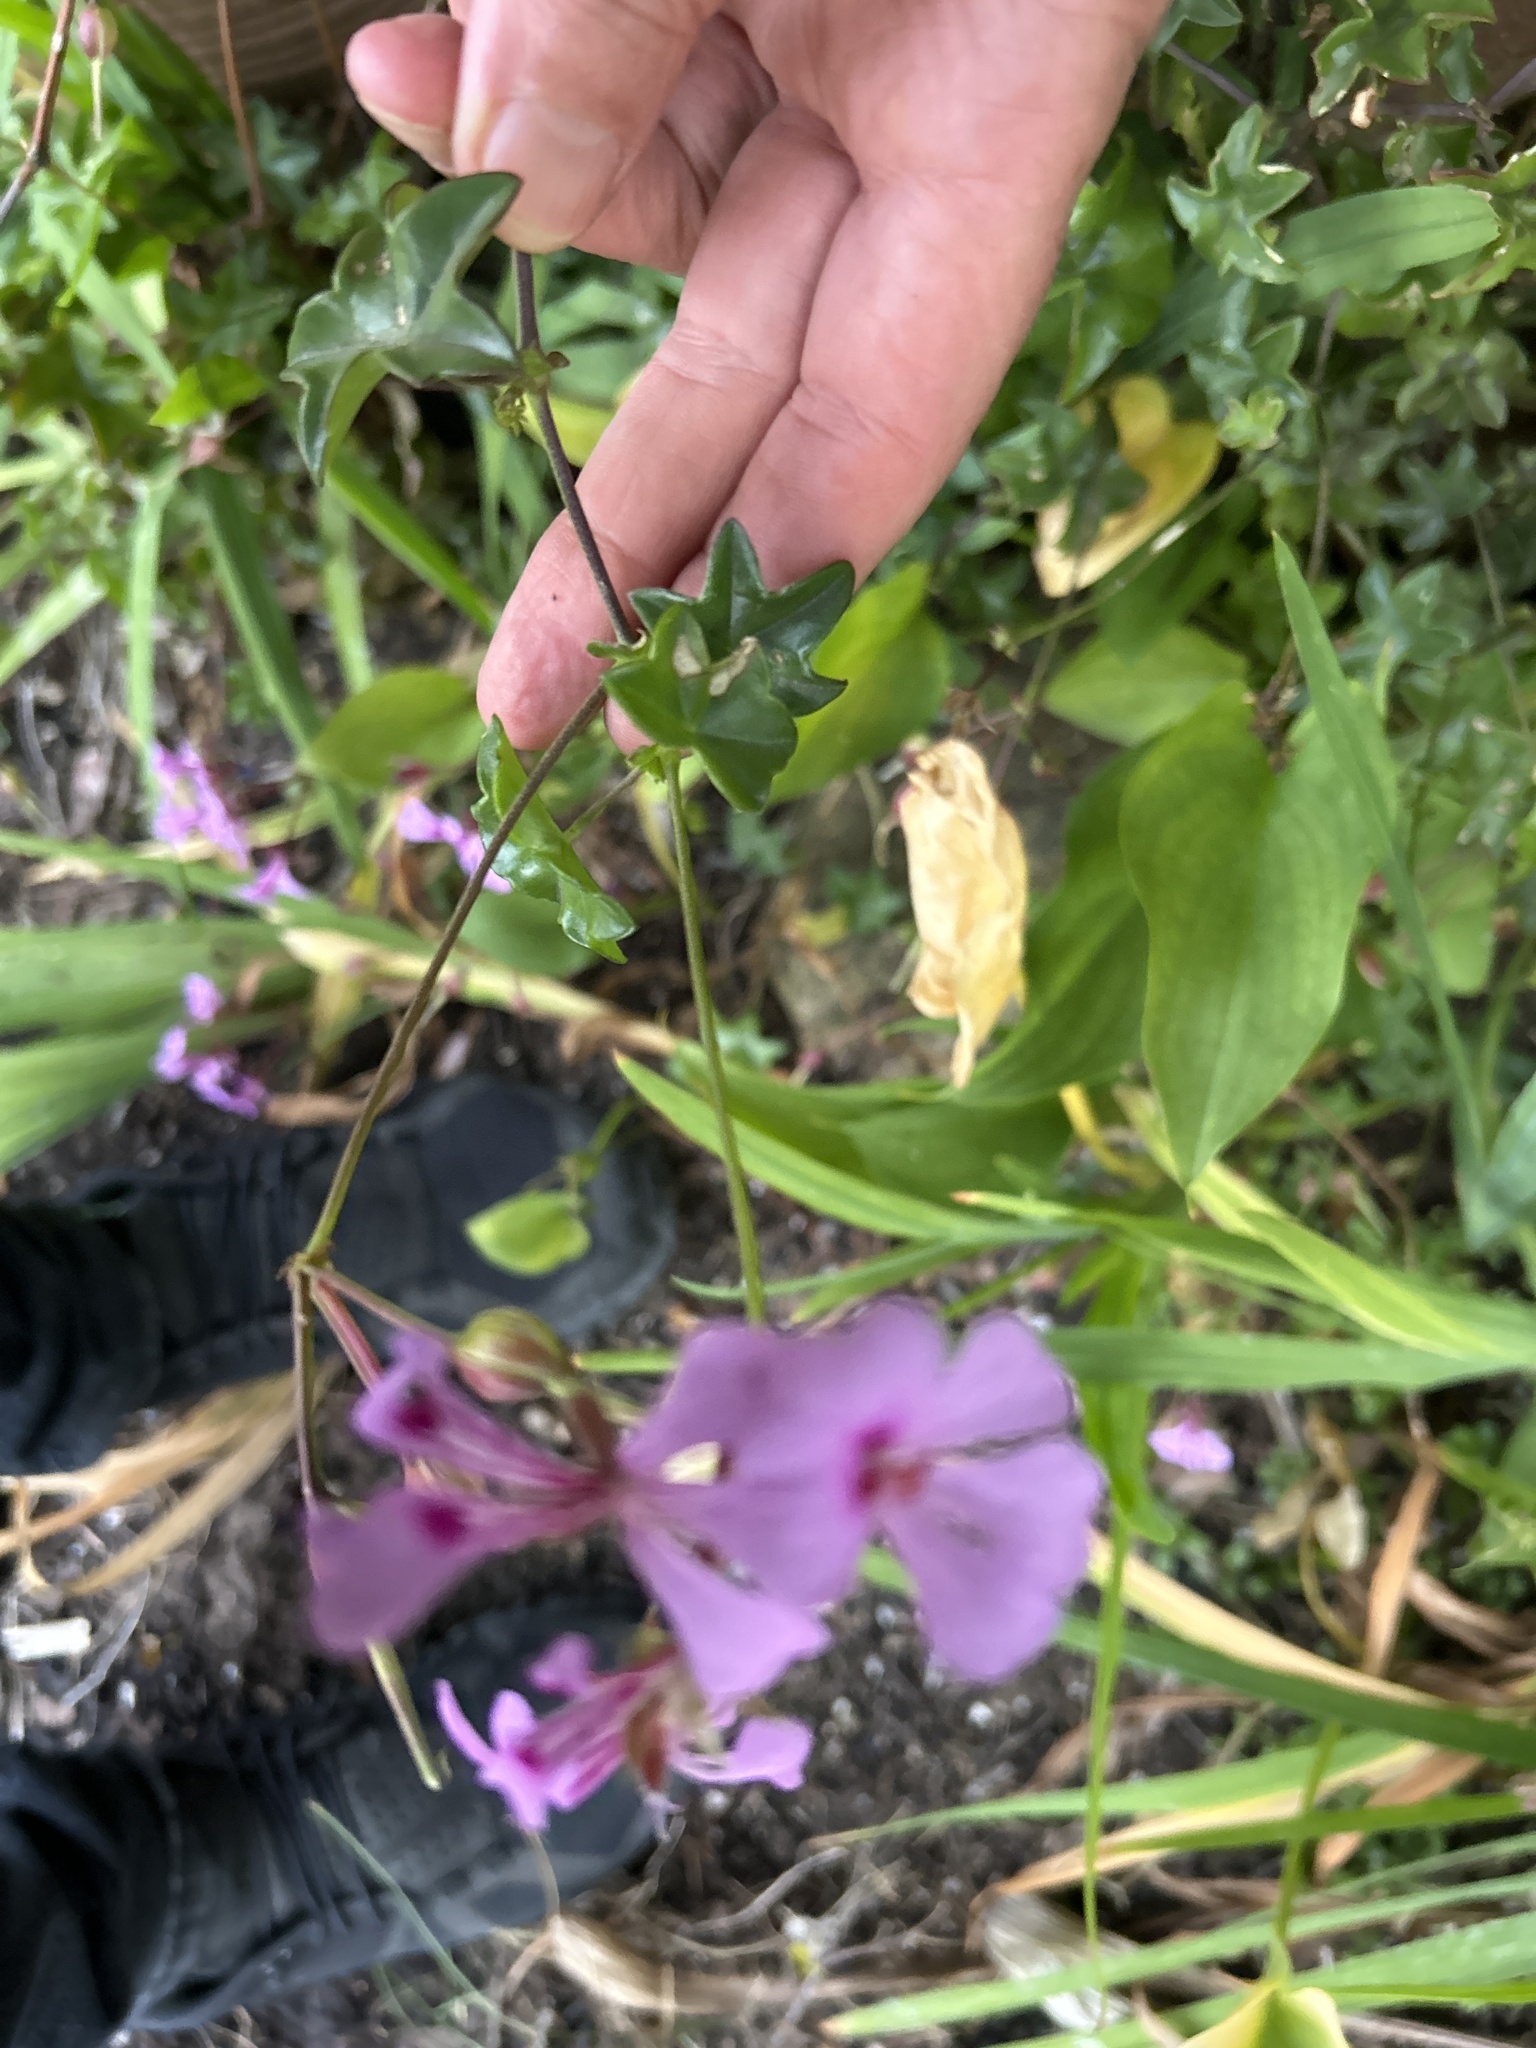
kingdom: Plantae
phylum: Tracheophyta
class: Magnoliopsida
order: Geraniales
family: Geraniaceae
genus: Pelargonium
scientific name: Pelargonium peltatum
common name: Ivyleaf geranium
